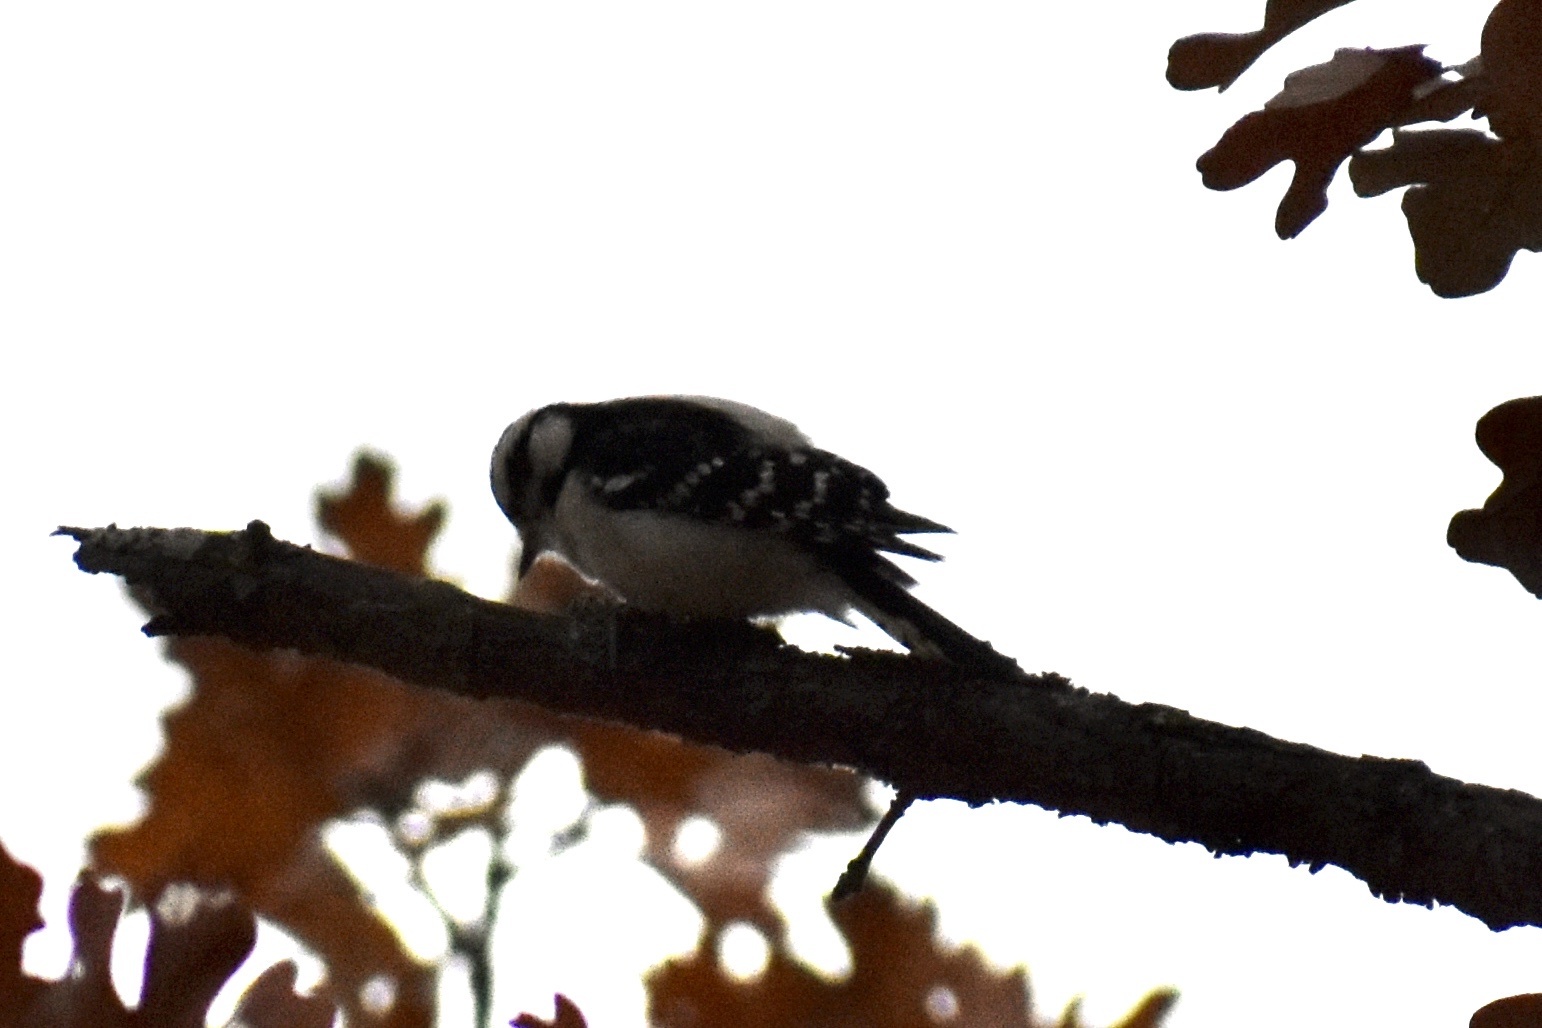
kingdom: Animalia
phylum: Chordata
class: Aves
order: Piciformes
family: Picidae
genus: Dryobates
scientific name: Dryobates pubescens
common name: Downy woodpecker
